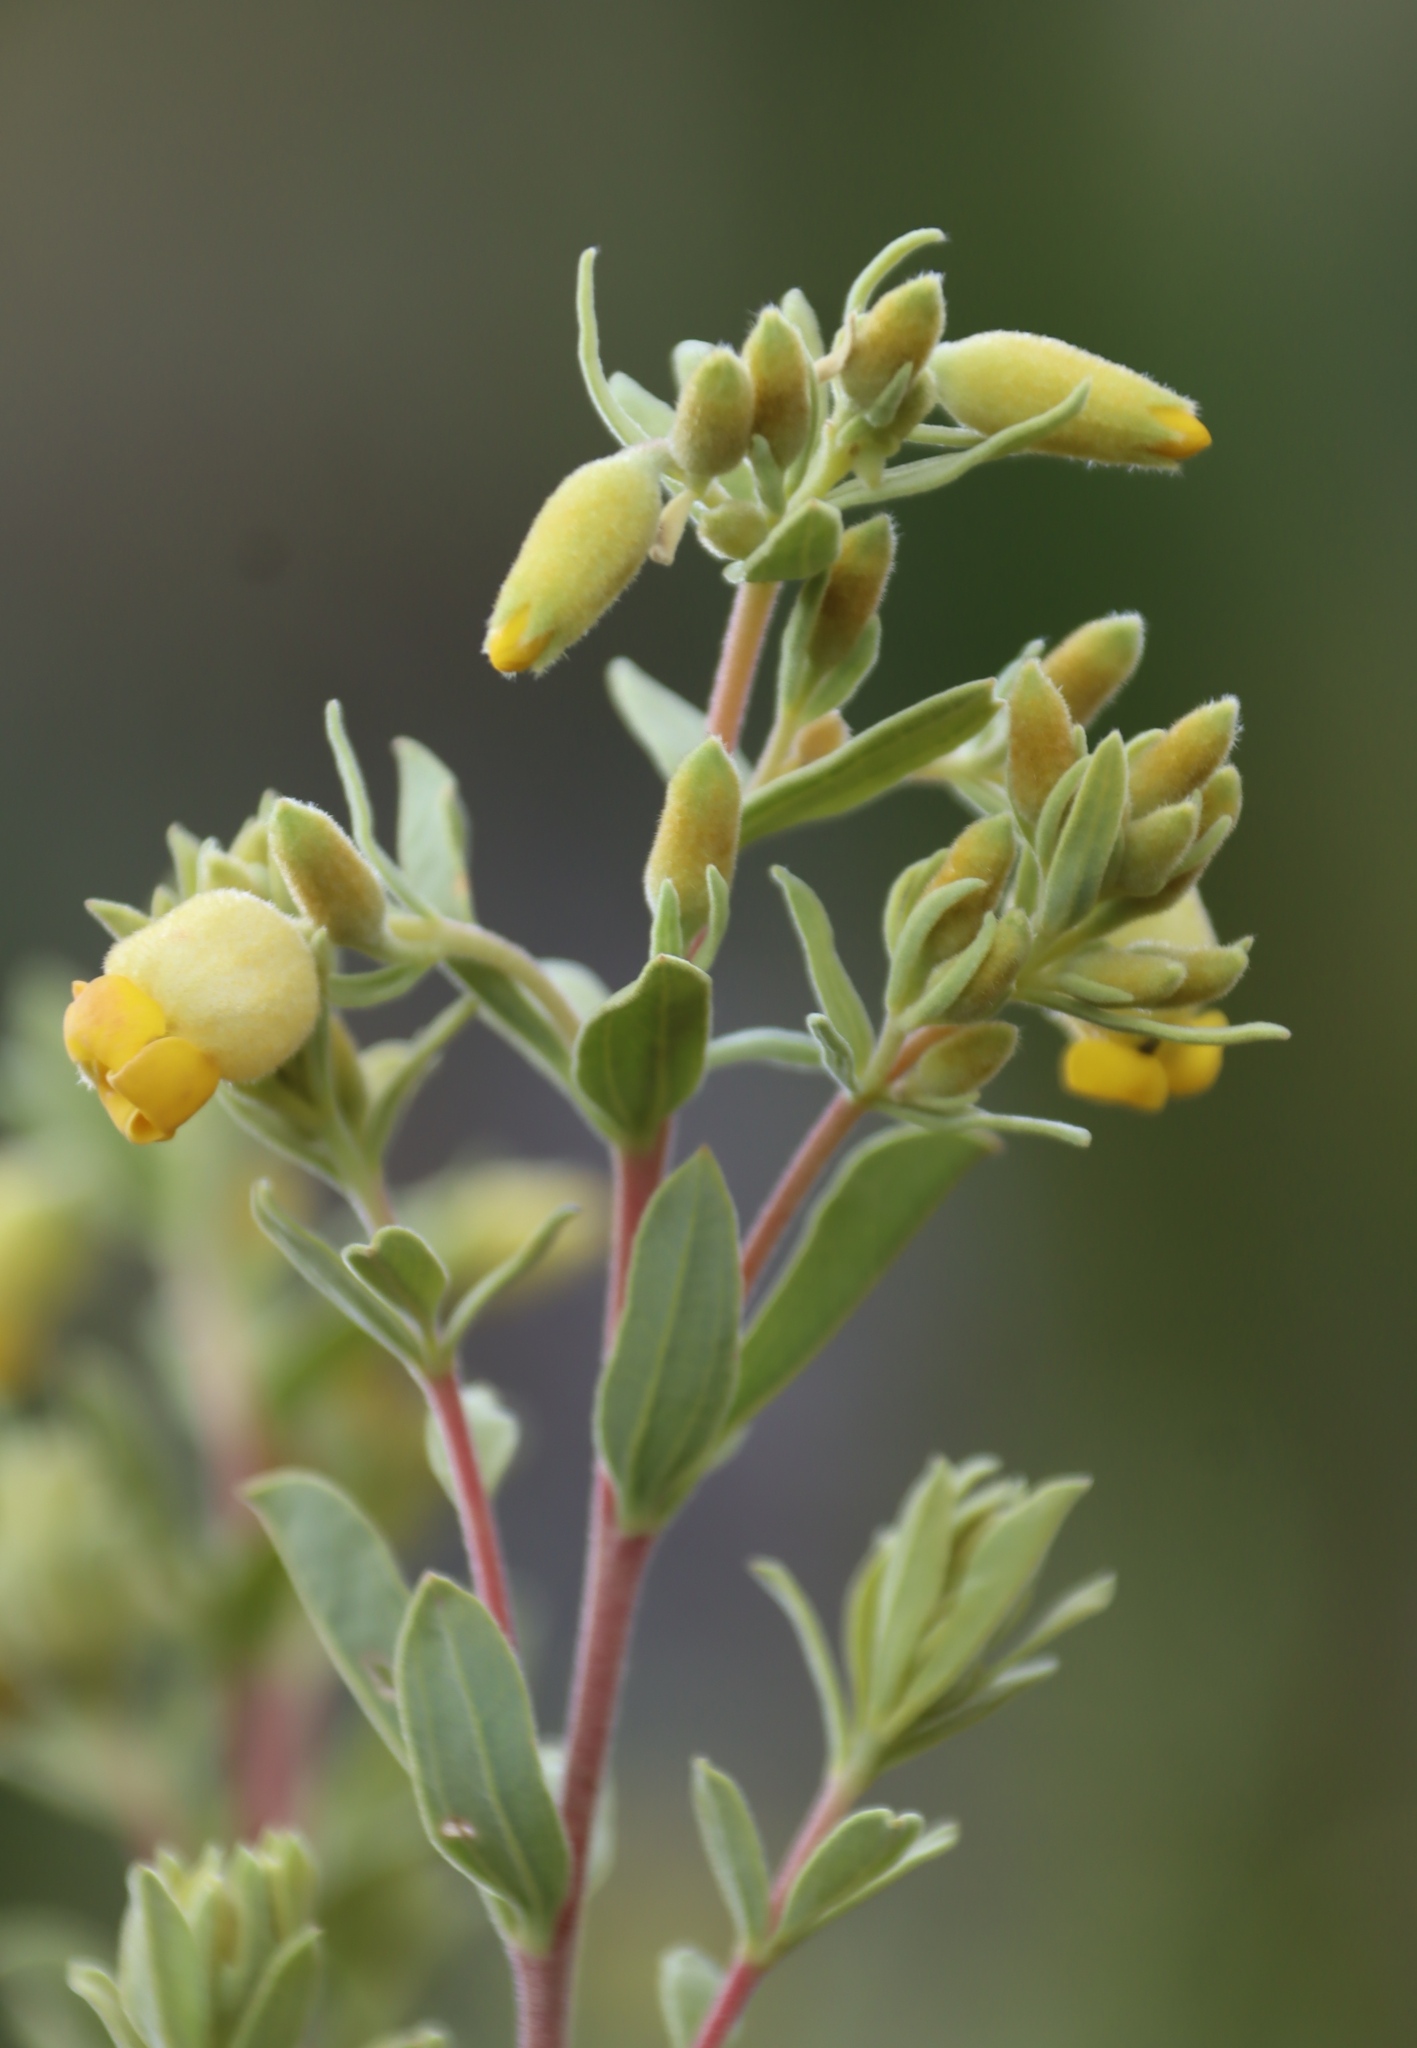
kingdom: Plantae
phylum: Tracheophyta
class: Magnoliopsida
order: Malvales
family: Malvaceae
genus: Hermannia
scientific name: Hermannia mucronulata
